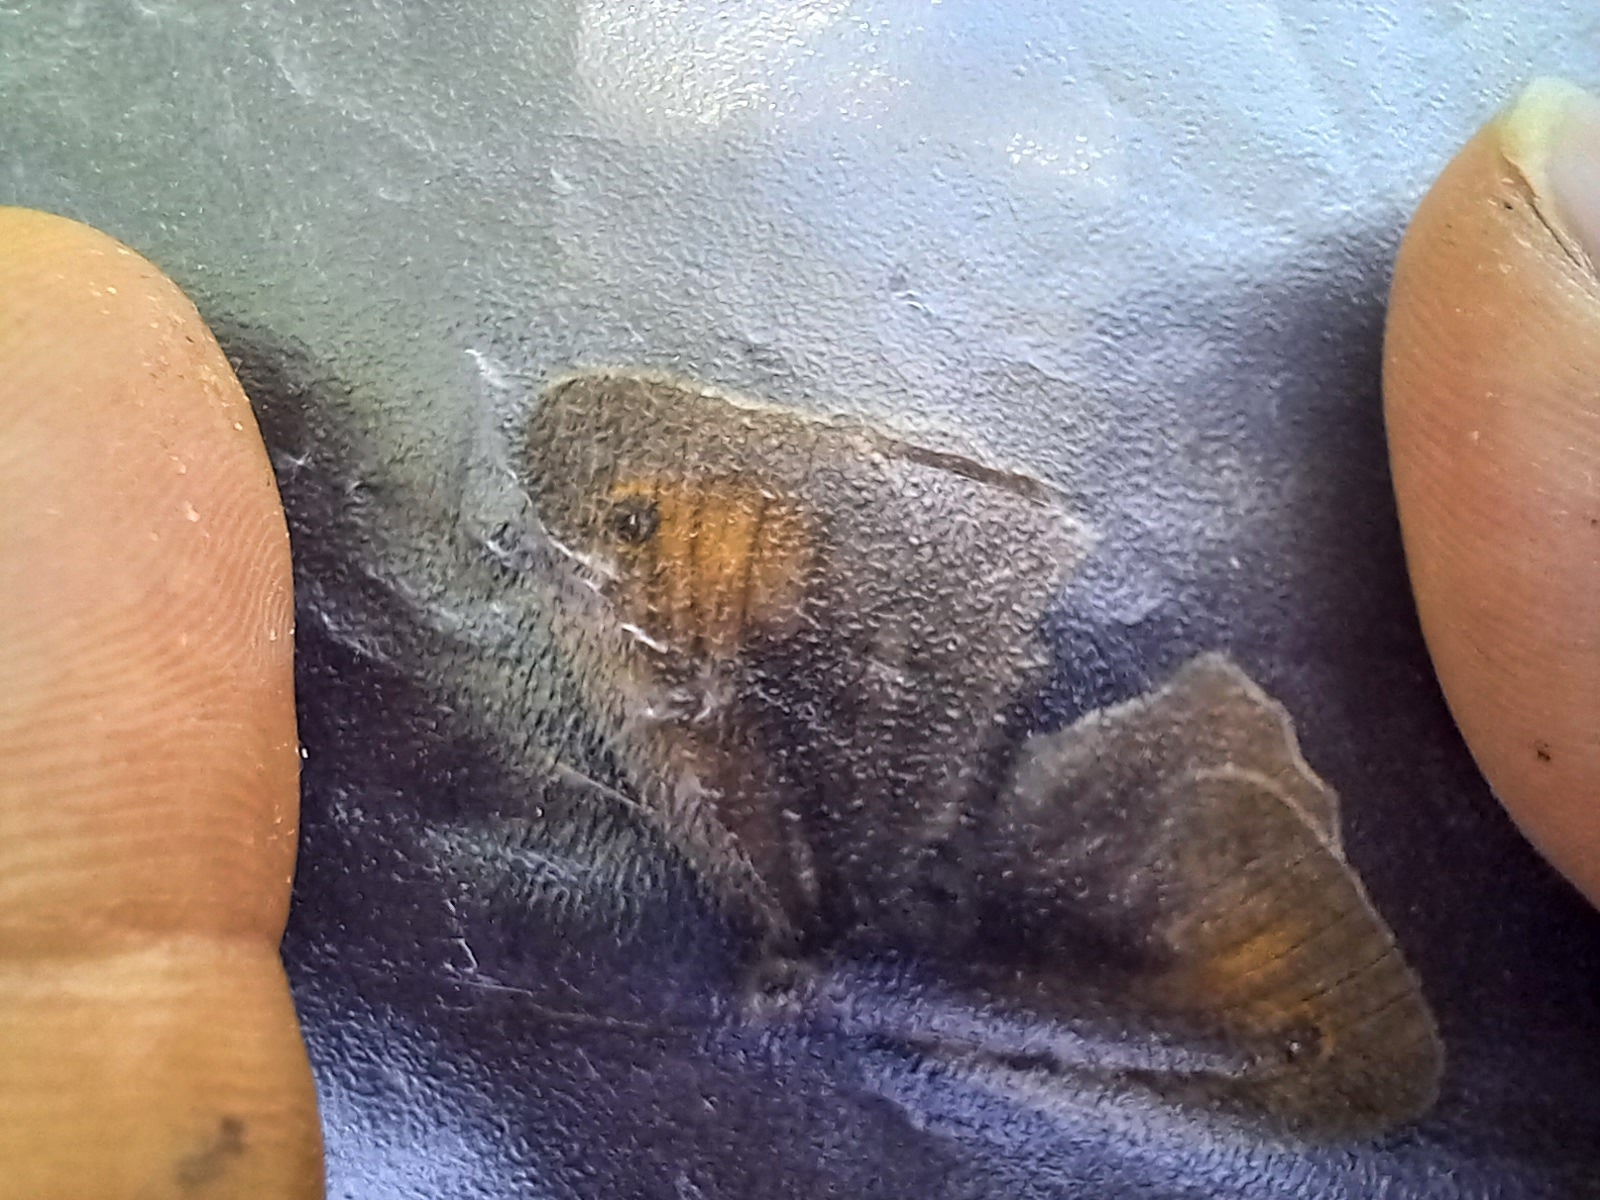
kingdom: Animalia
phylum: Arthropoda
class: Insecta
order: Lepidoptera
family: Nymphalidae
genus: Maniola
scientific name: Maniola jurtina
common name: Meadow brown
